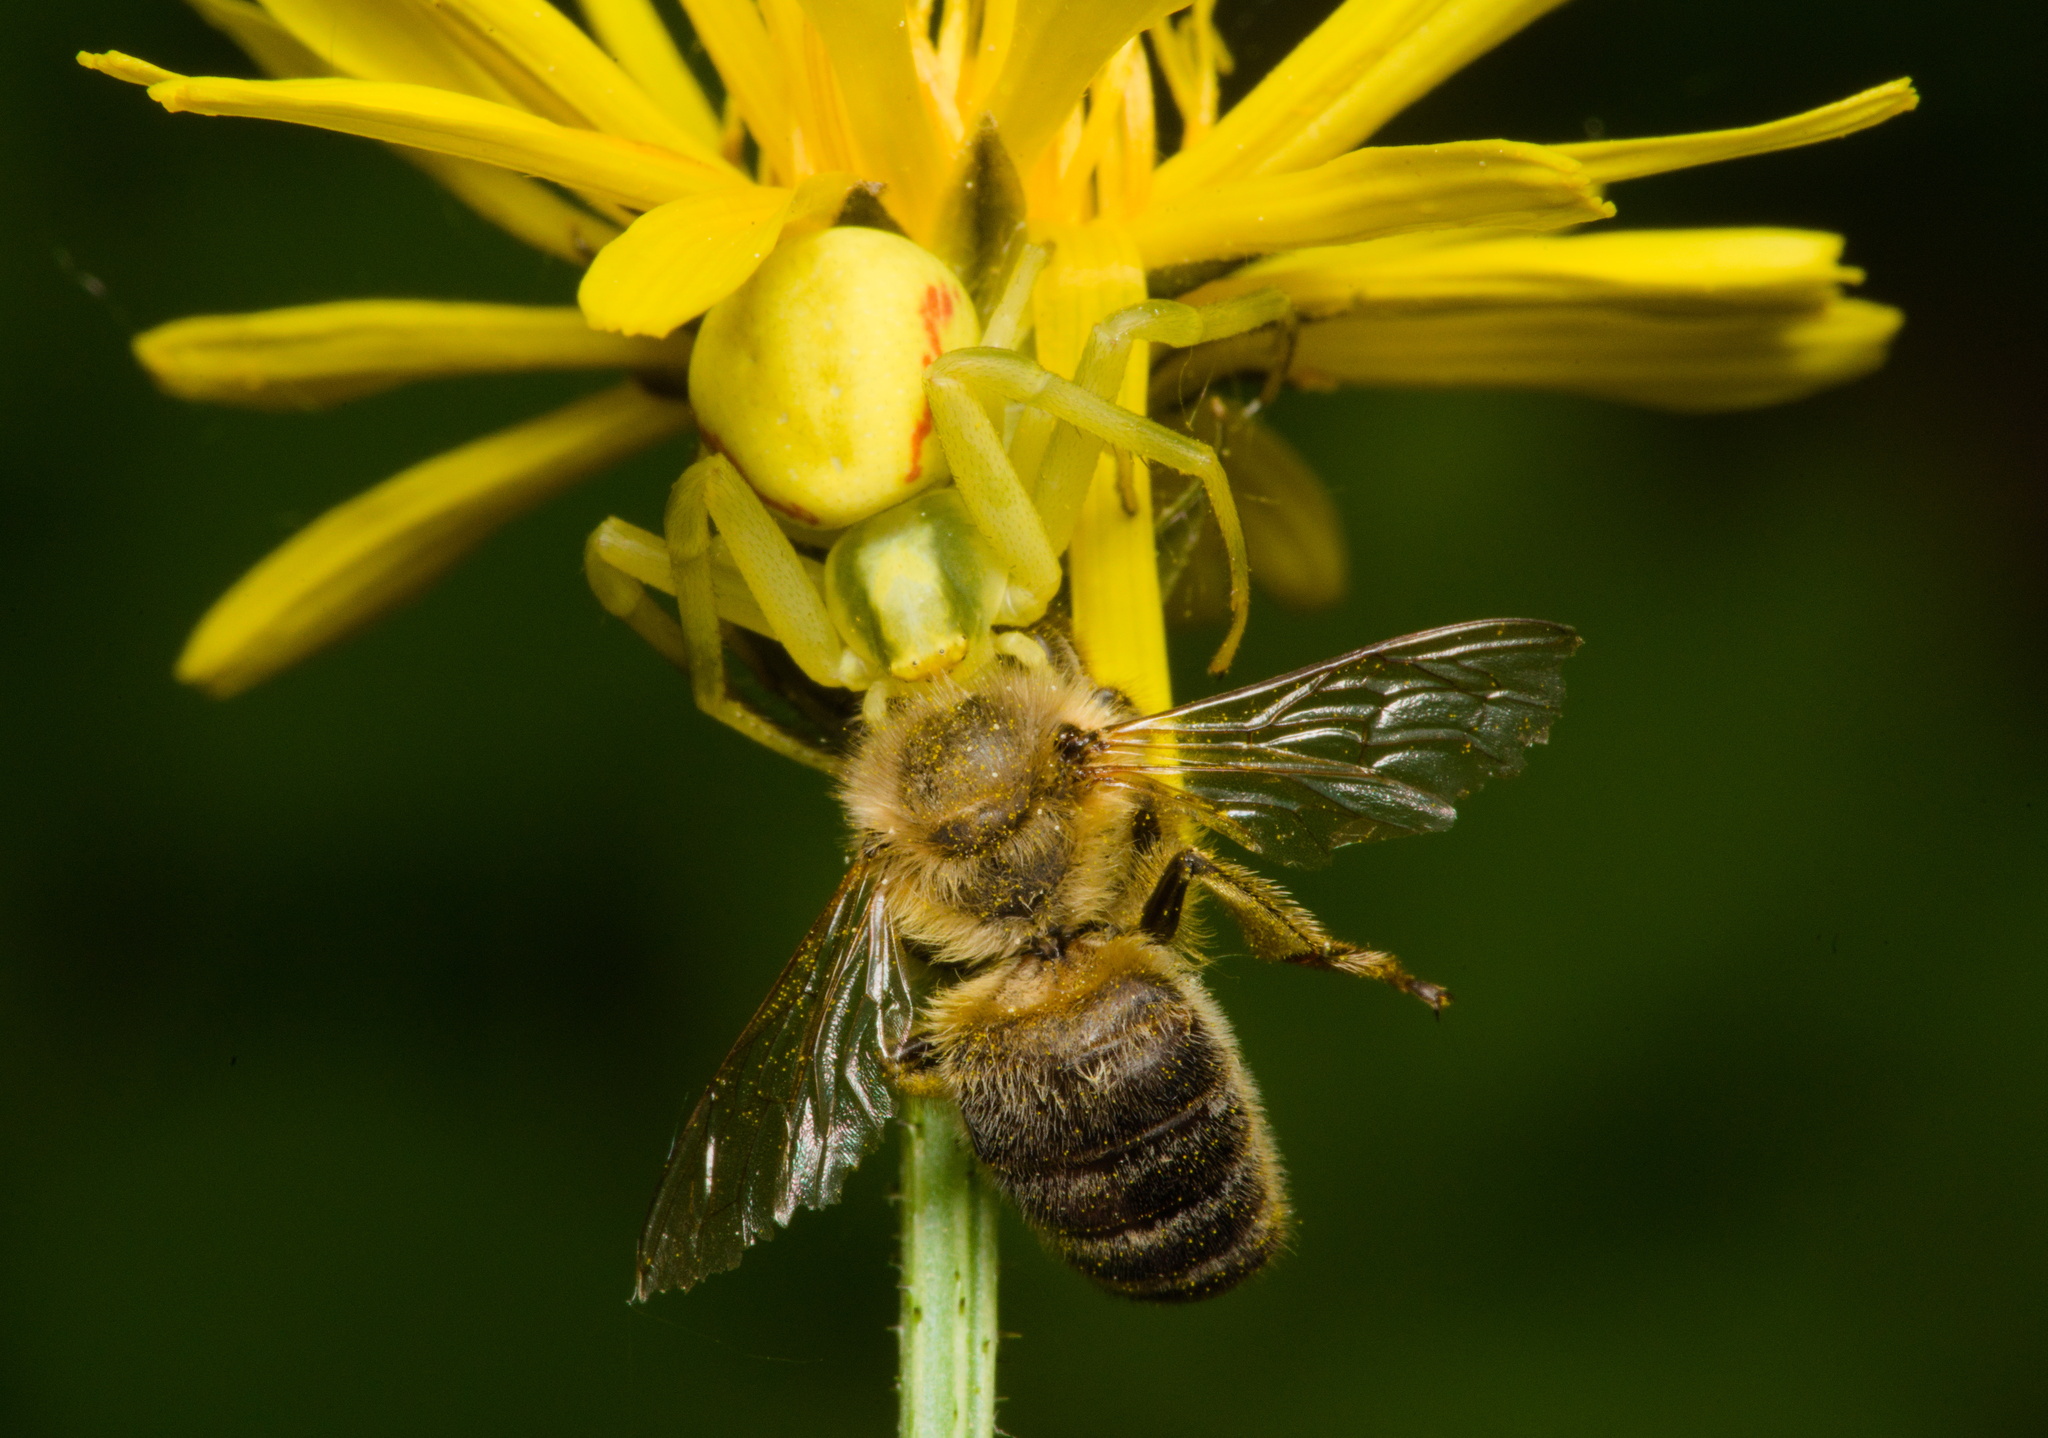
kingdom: Animalia
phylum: Arthropoda
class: Arachnida
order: Araneae
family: Thomisidae
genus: Misumena
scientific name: Misumena vatia
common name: Goldenrod crab spider
